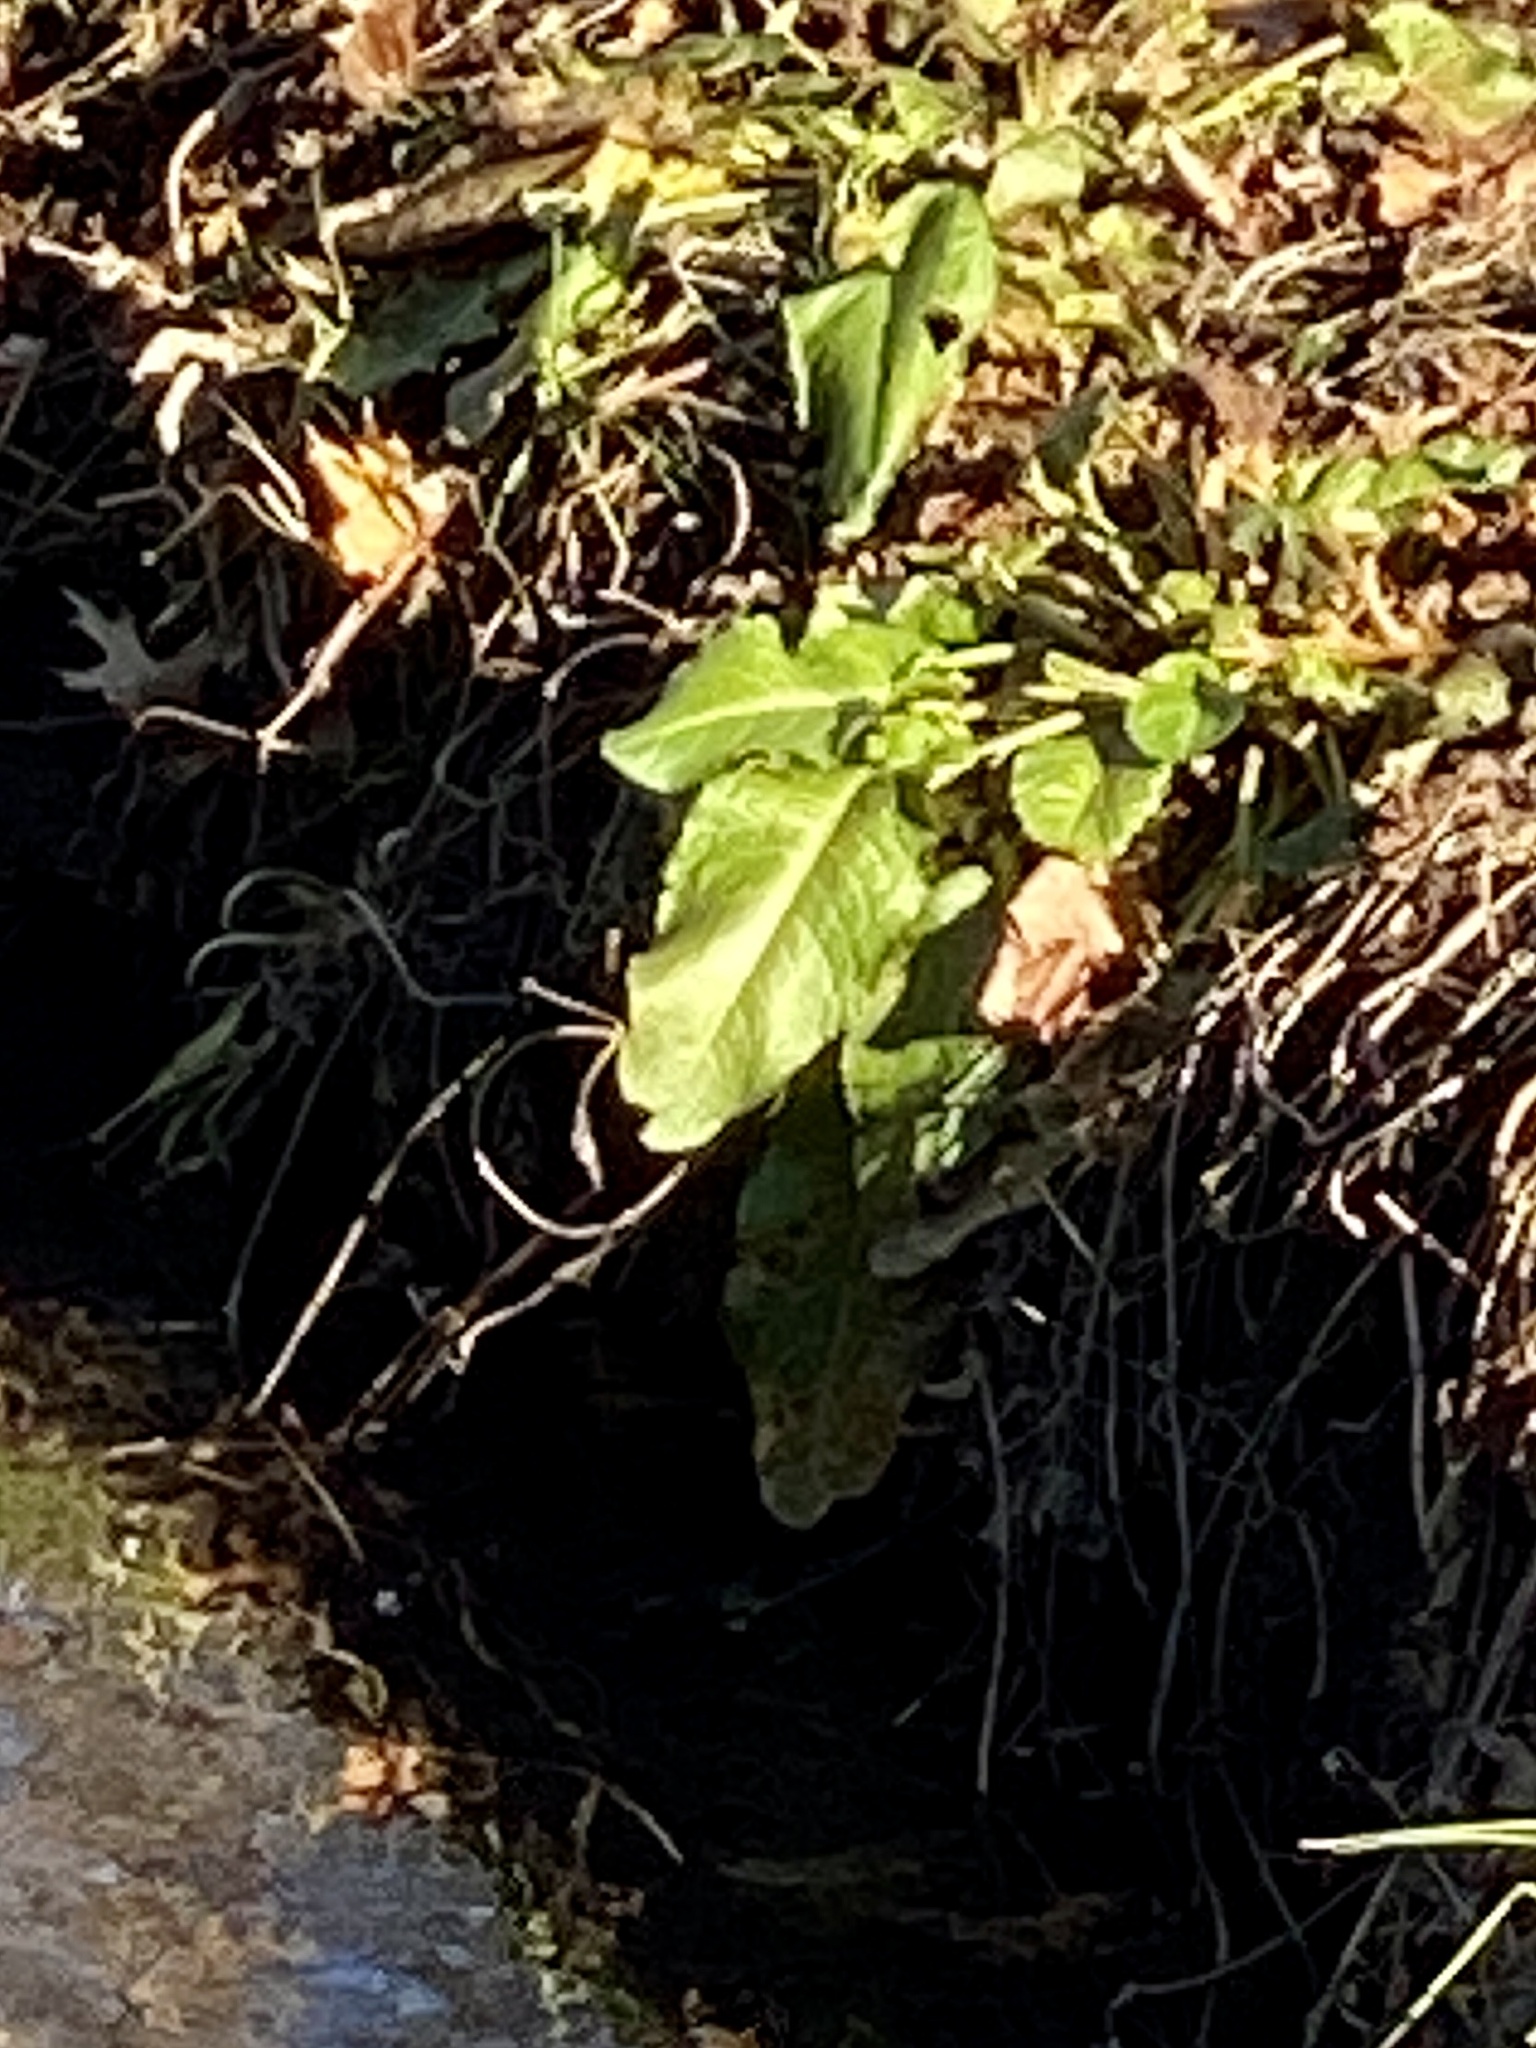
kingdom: Plantae
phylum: Tracheophyta
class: Magnoliopsida
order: Caryophyllales
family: Polygonaceae
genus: Rumex
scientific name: Rumex obtusifolius
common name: Bitter dock
